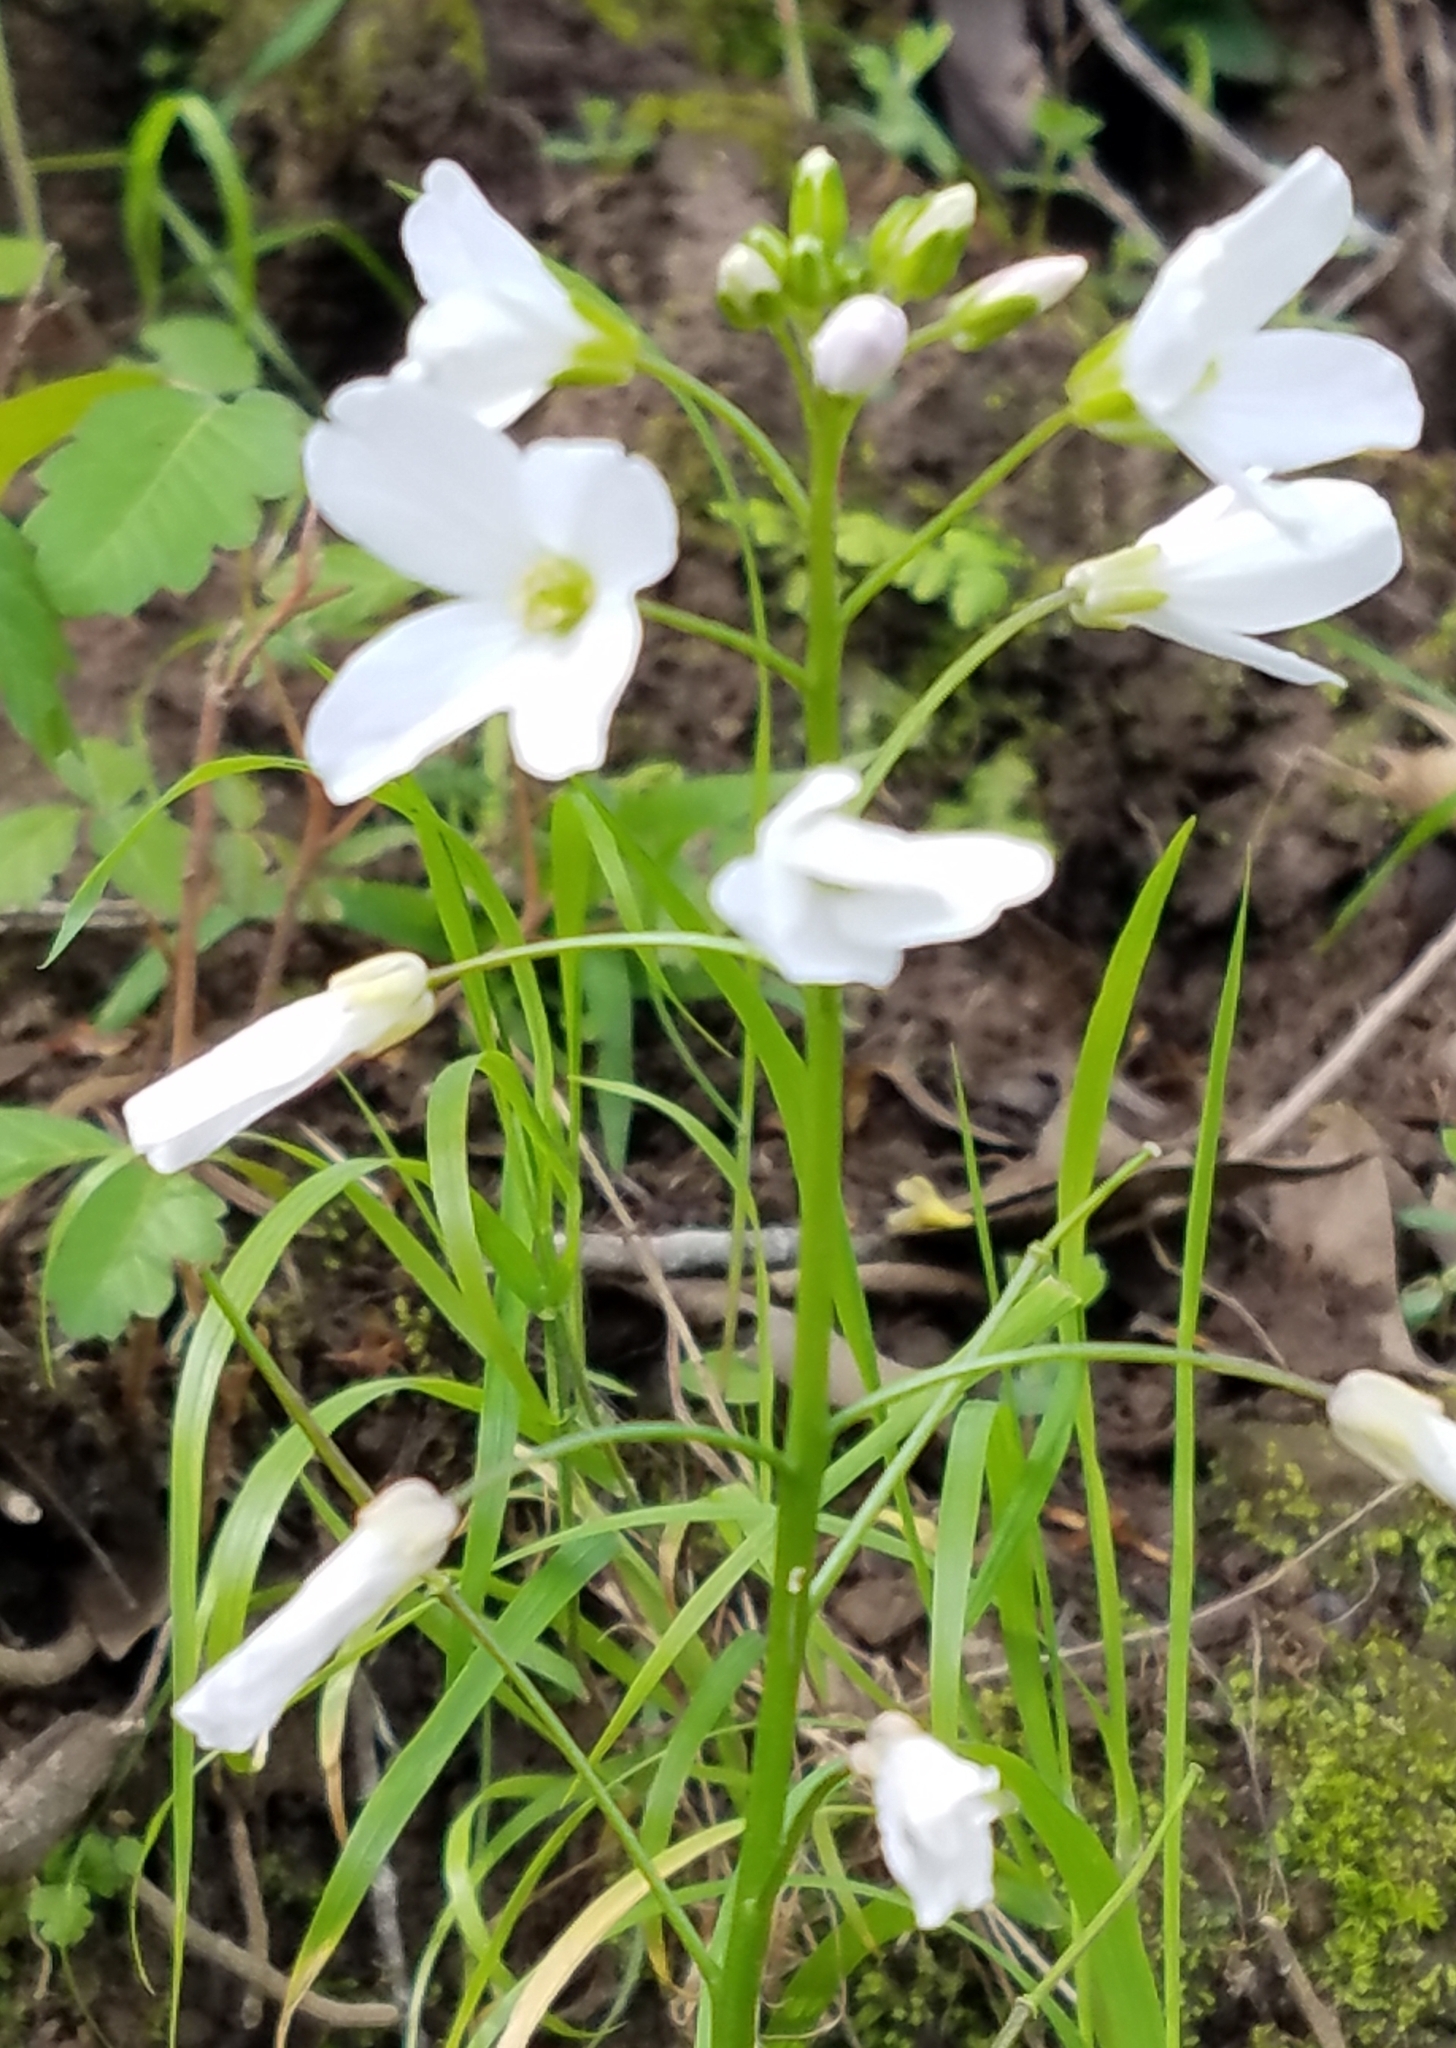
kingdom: Plantae
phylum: Tracheophyta
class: Magnoliopsida
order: Brassicales
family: Brassicaceae
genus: Cardamine
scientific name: Cardamine californica
